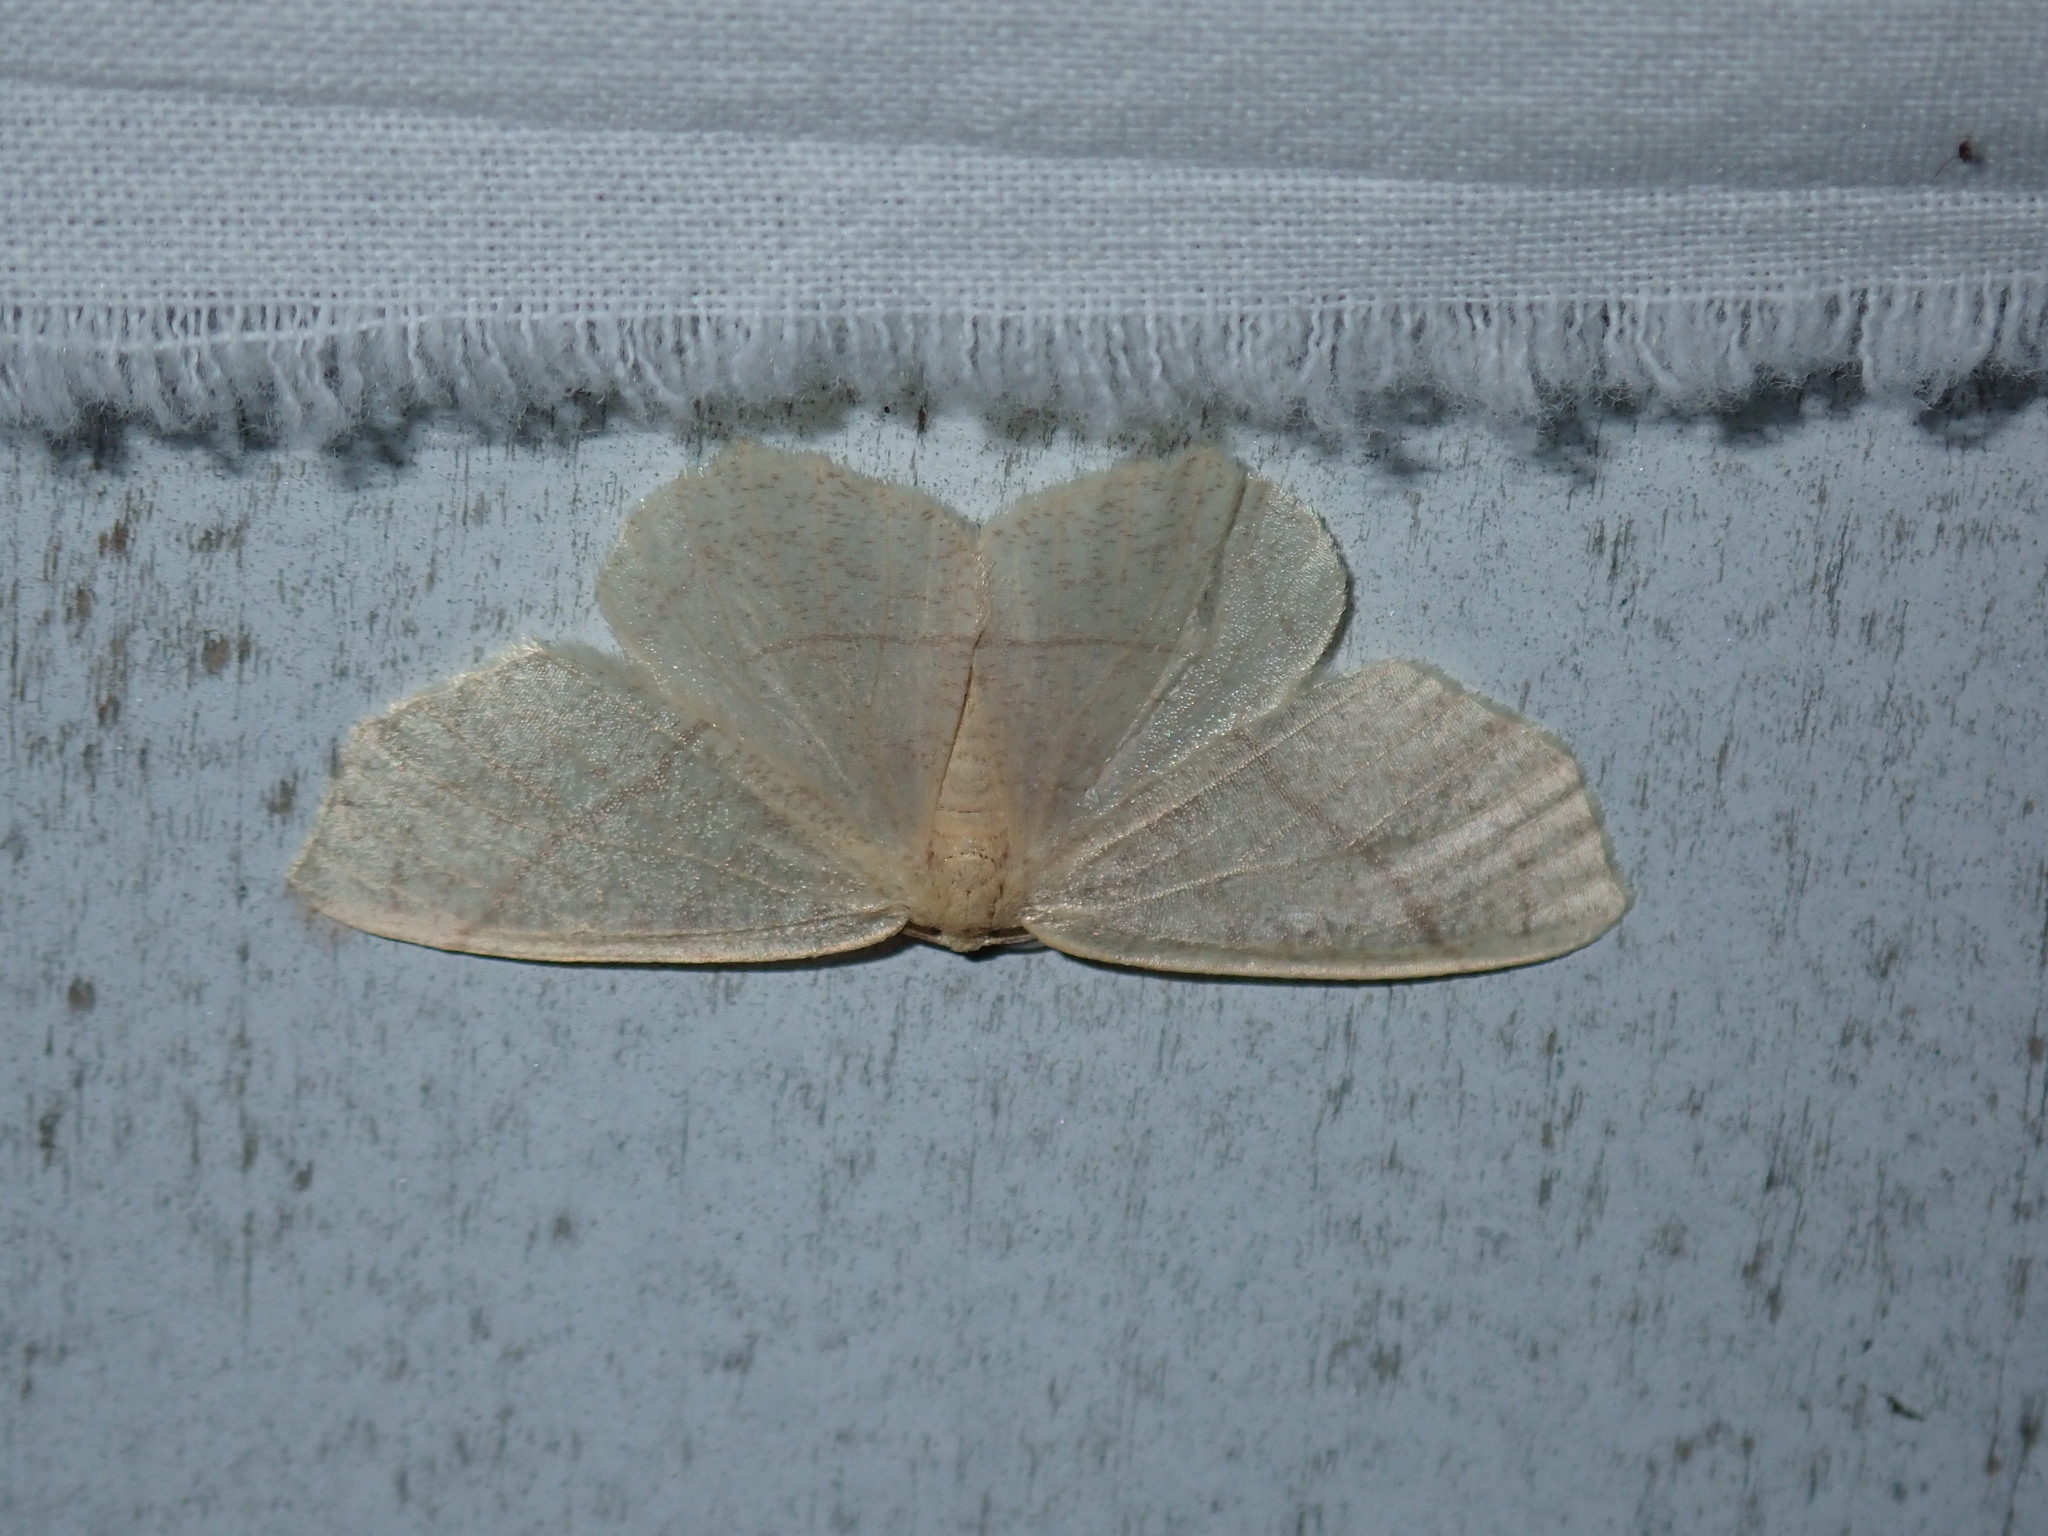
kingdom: Animalia
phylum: Arthropoda
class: Insecta
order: Lepidoptera
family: Geometridae
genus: Besma
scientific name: Besma endropiaria
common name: Straw besma
